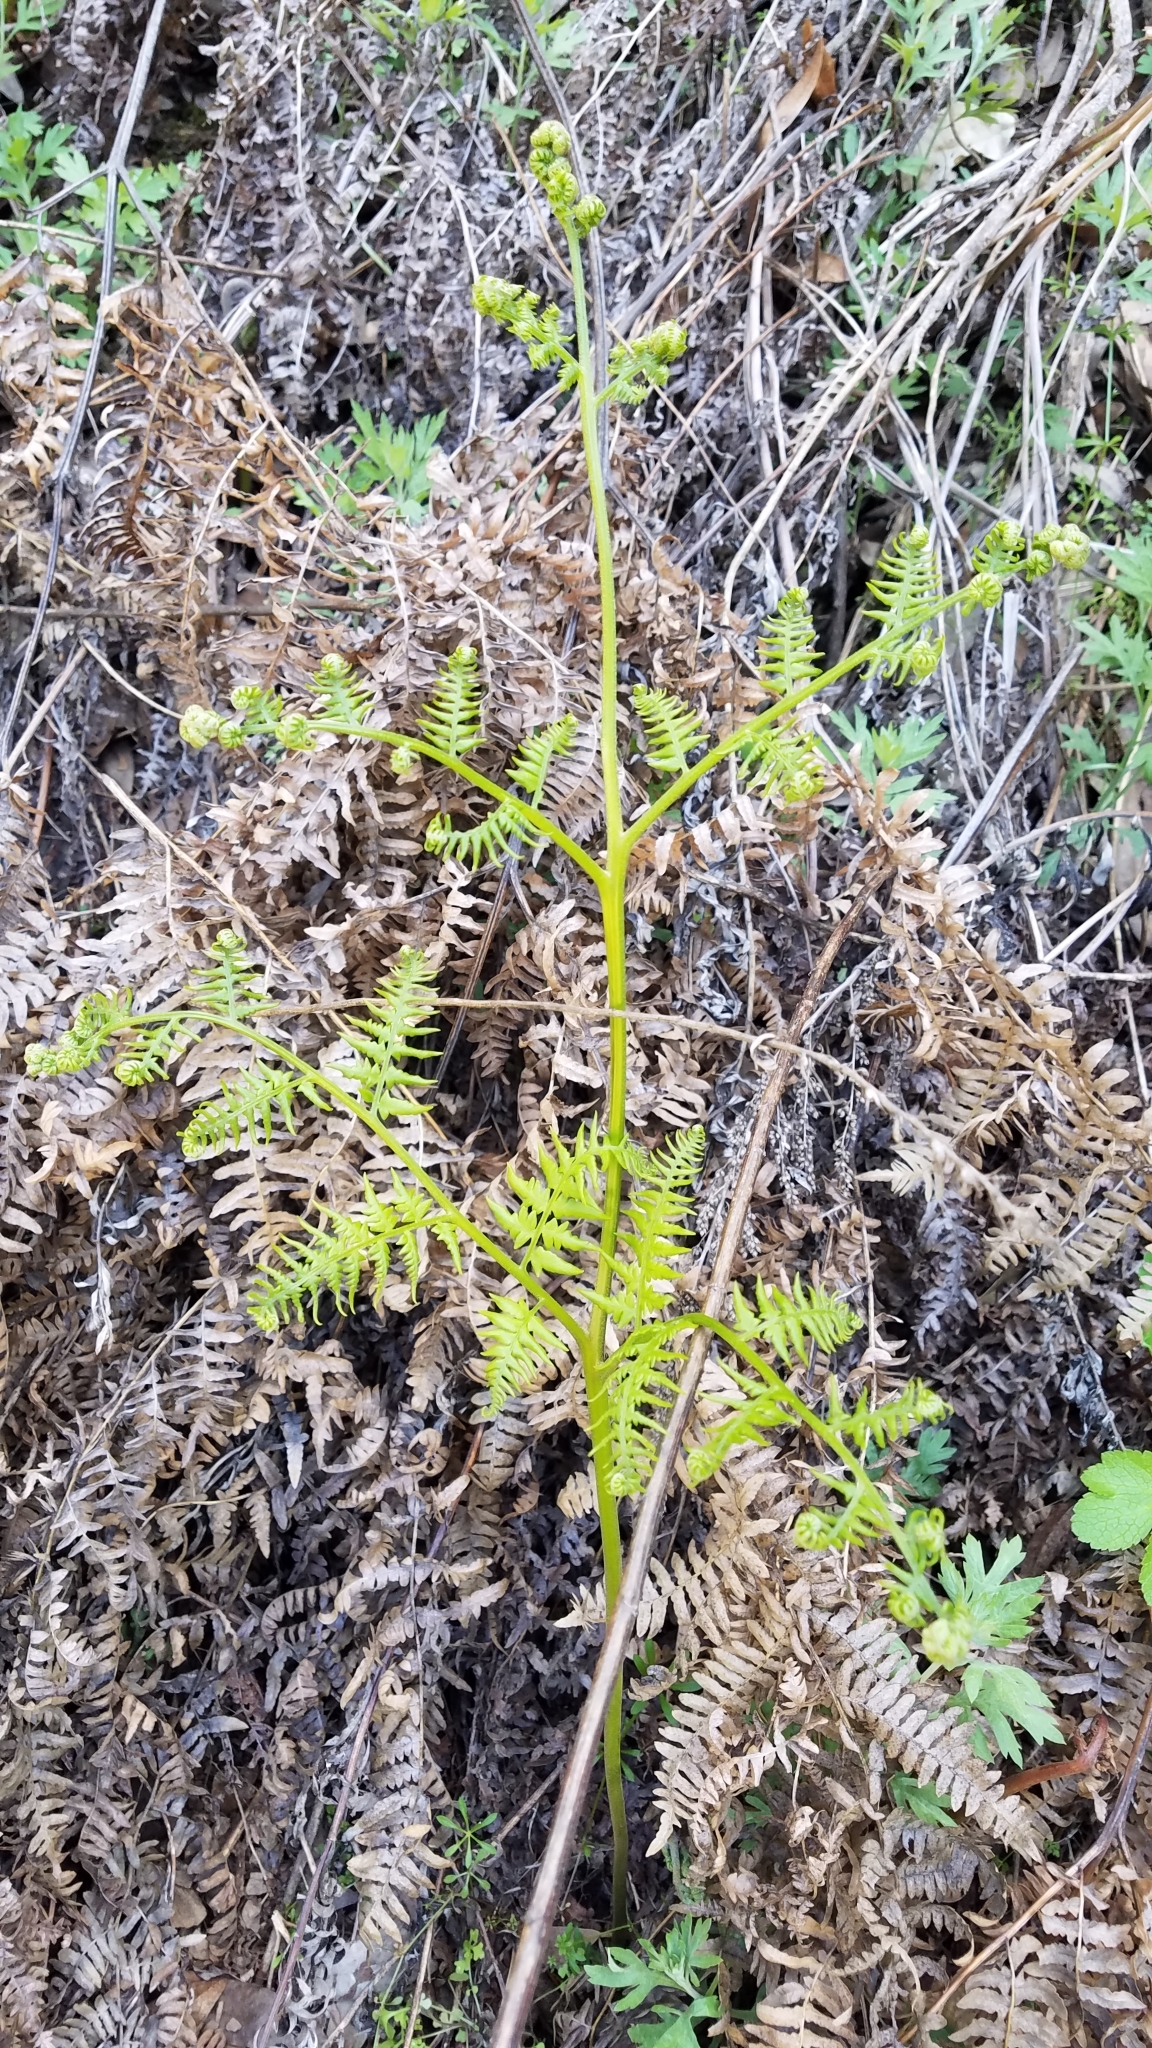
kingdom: Plantae
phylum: Tracheophyta
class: Polypodiopsida
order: Polypodiales
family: Dennstaedtiaceae
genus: Pteridium
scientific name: Pteridium aquilinum
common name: Bracken
